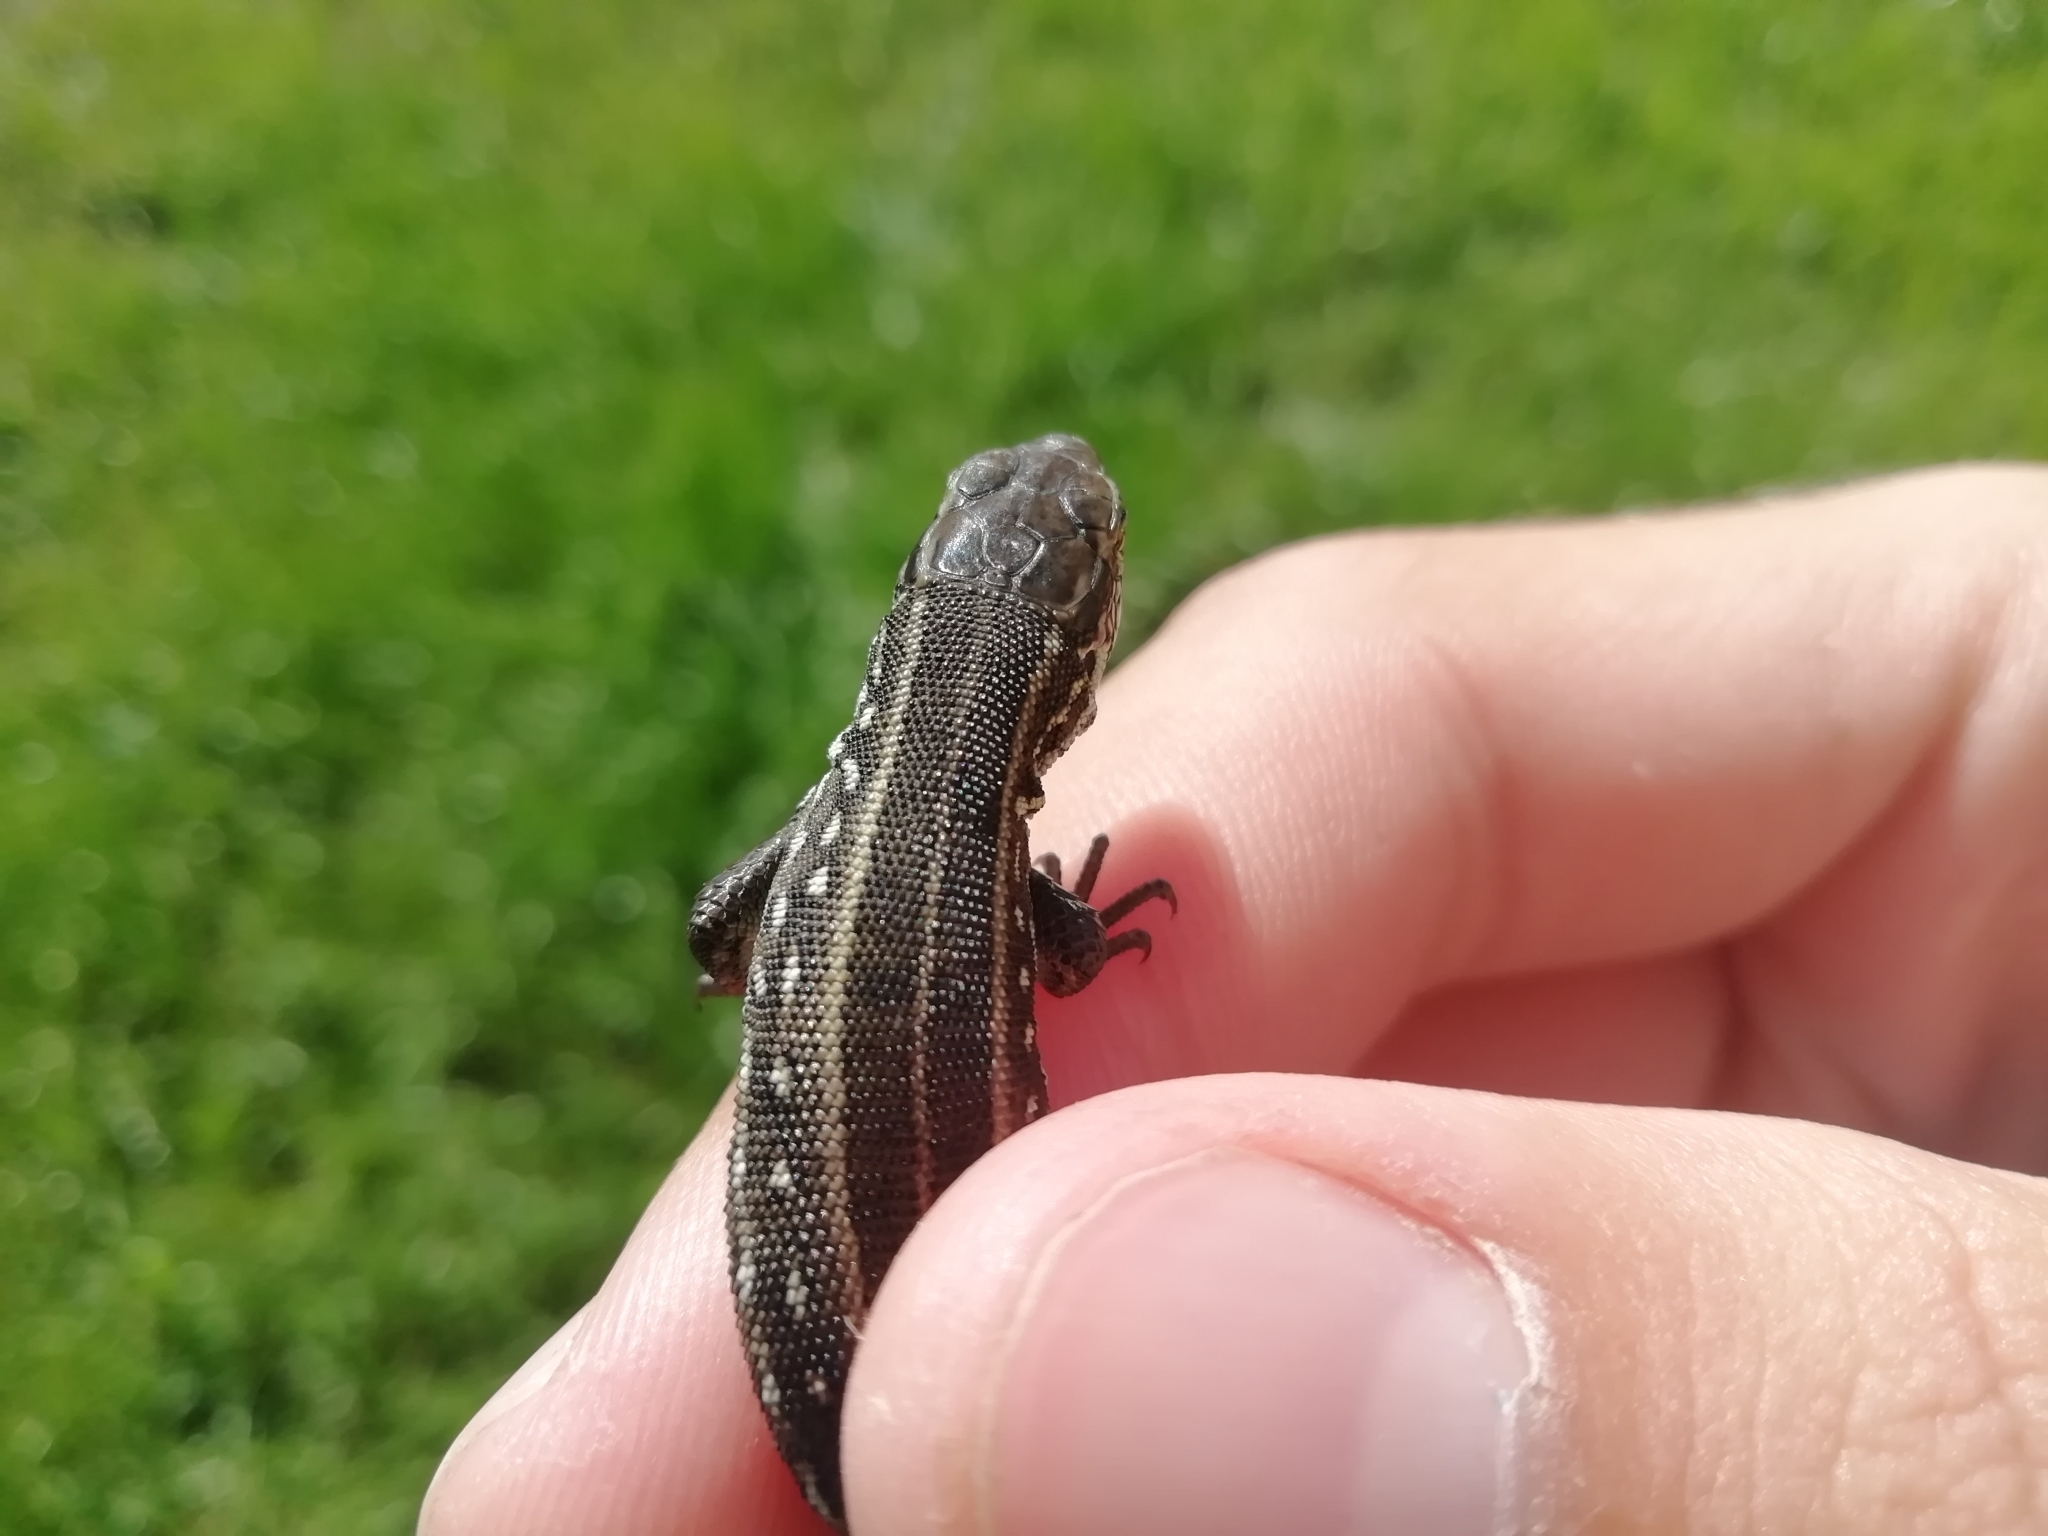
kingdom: Animalia
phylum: Chordata
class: Squamata
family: Lacertidae
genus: Lacerta
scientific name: Lacerta agilis
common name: Sand lizard
